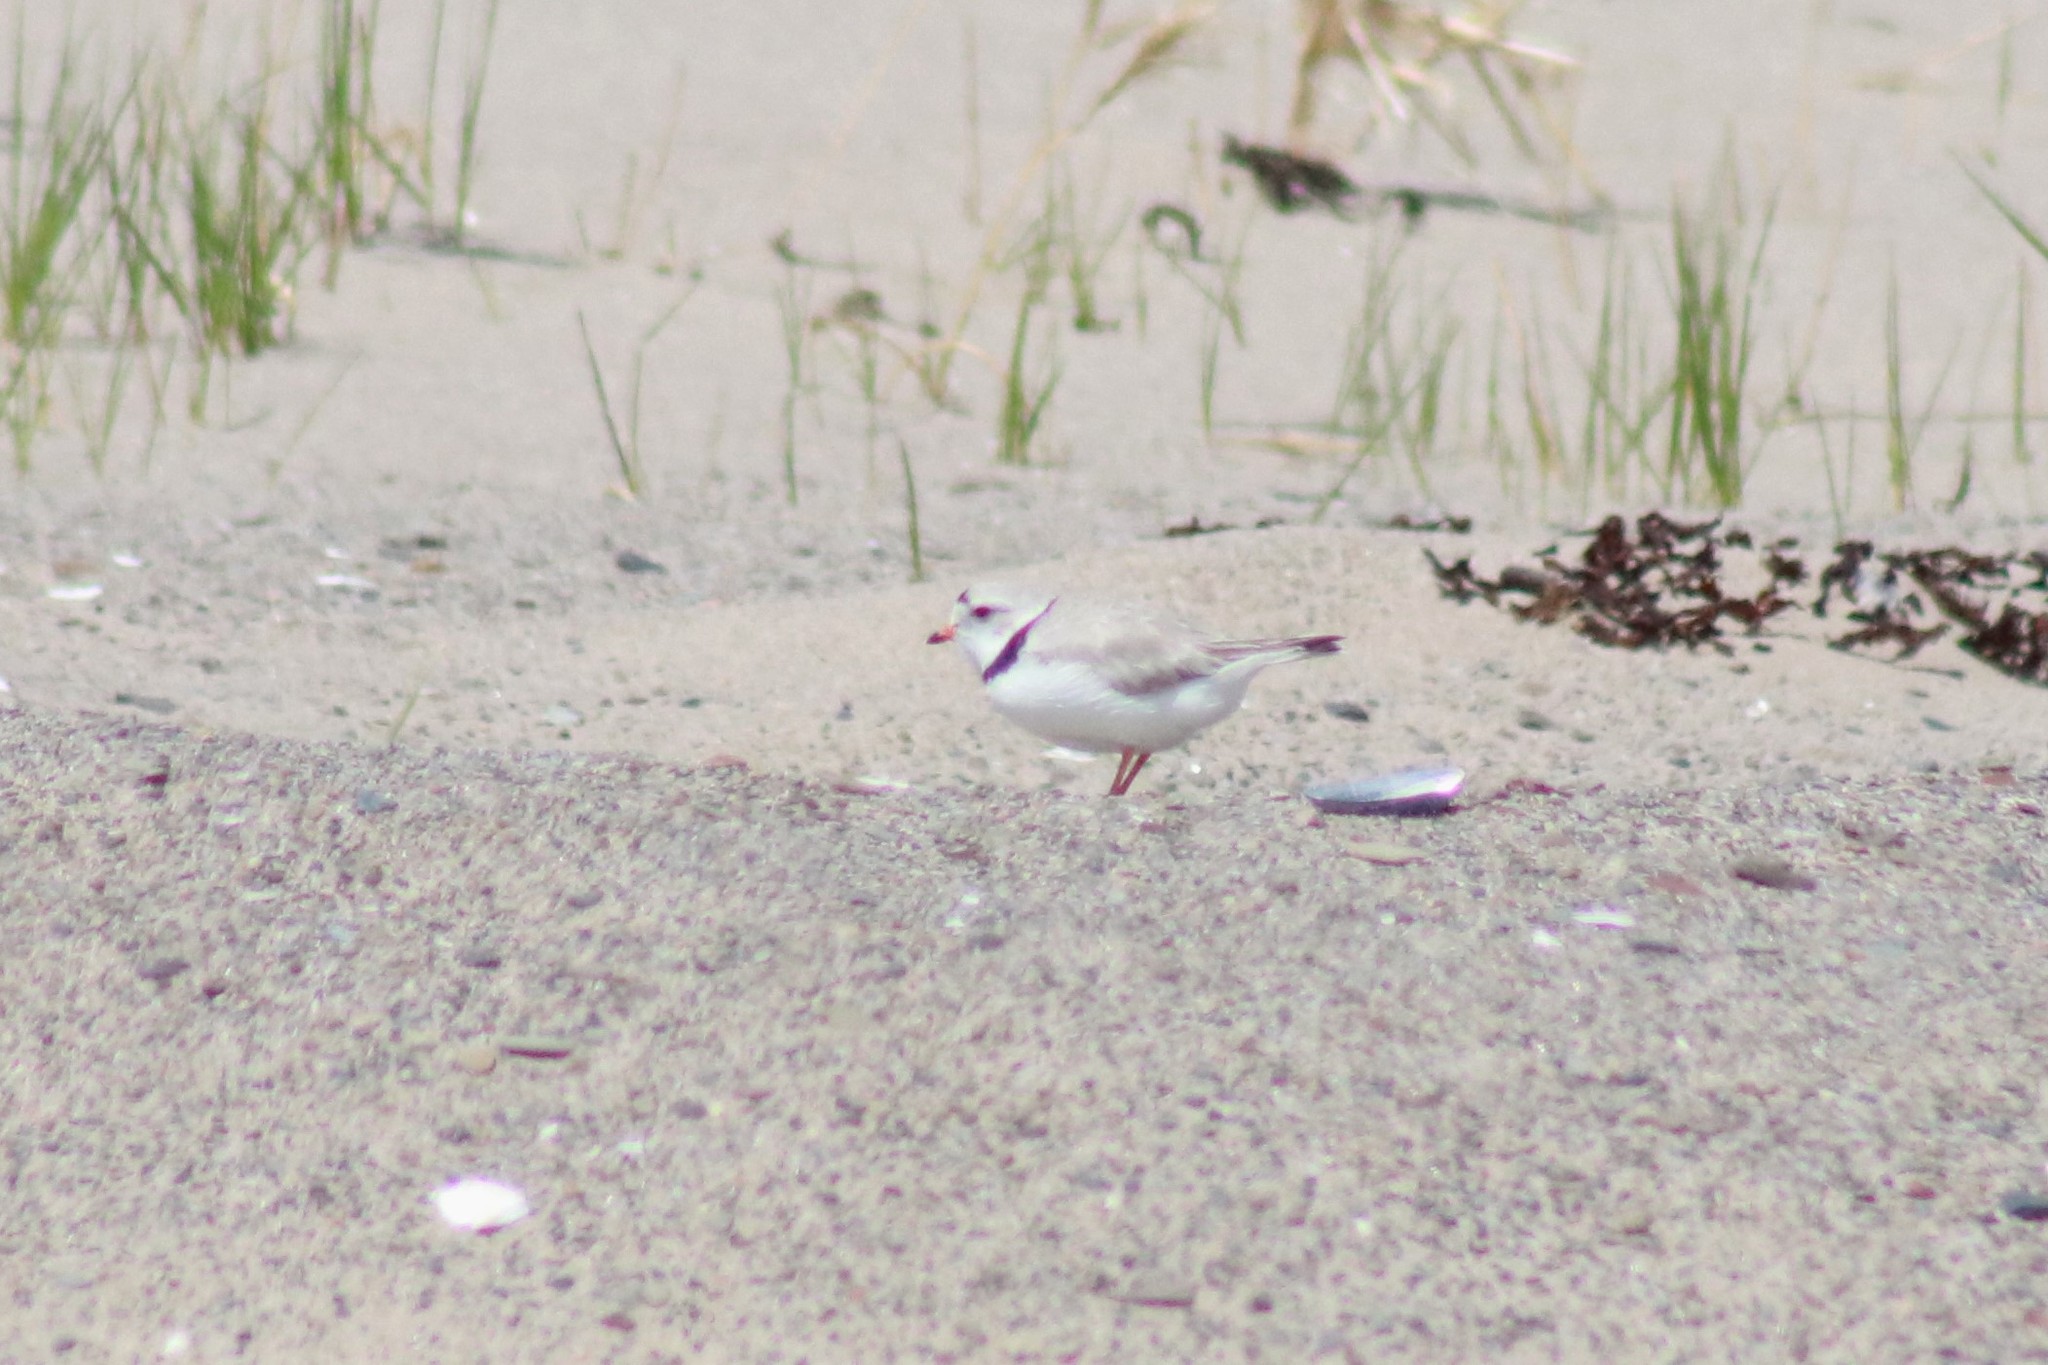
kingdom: Animalia
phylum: Chordata
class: Aves
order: Charadriiformes
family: Charadriidae
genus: Charadrius
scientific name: Charadrius melodus
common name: Piping plover
